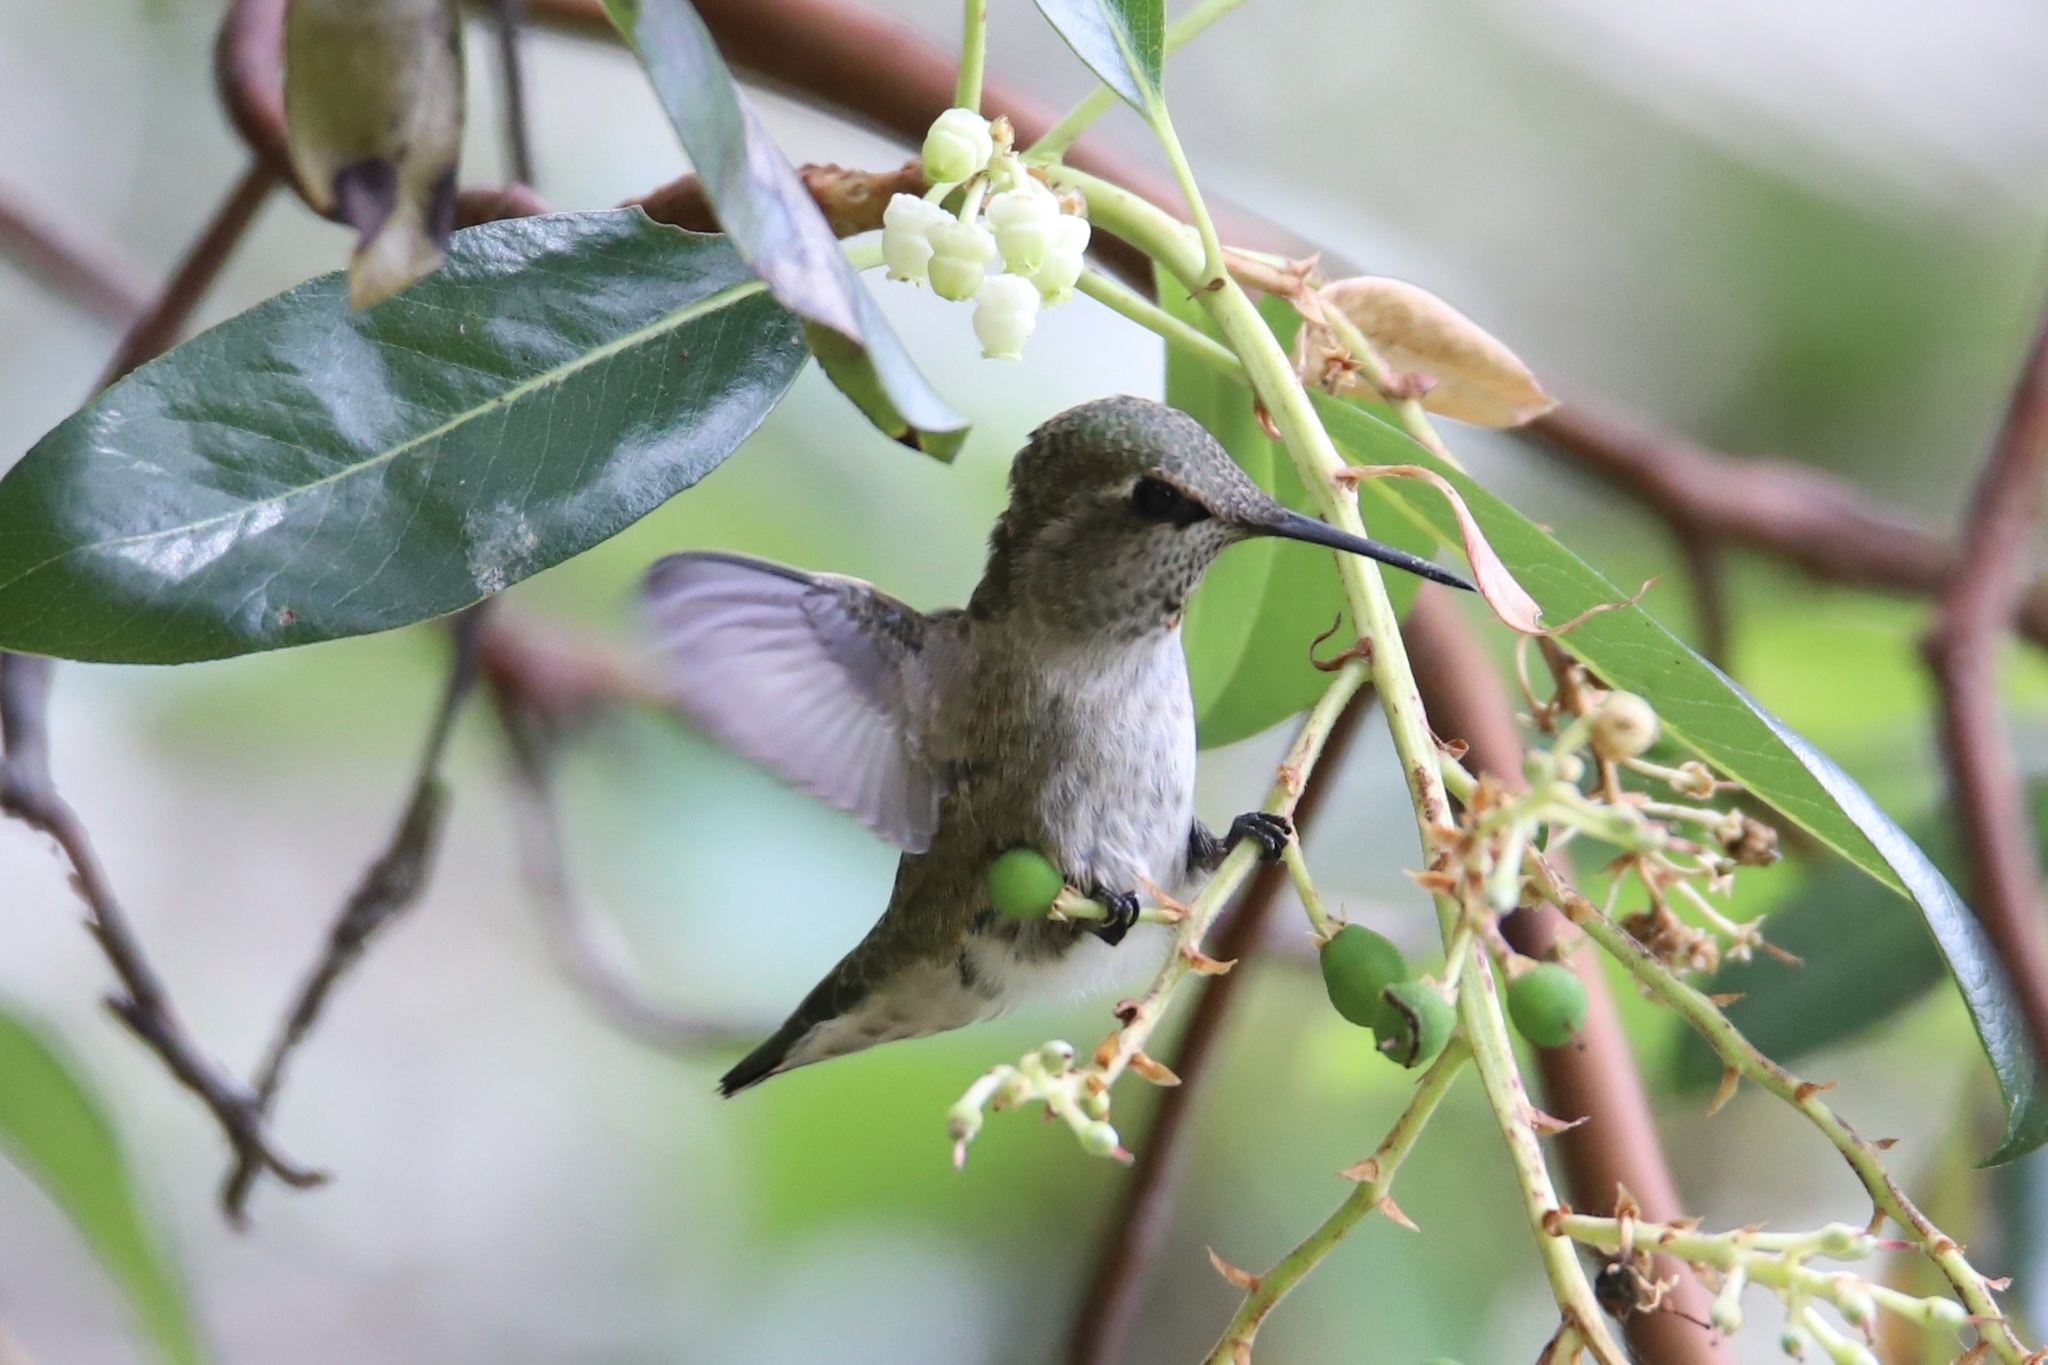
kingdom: Animalia
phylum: Chordata
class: Aves
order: Apodiformes
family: Trochilidae
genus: Calypte
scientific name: Calypte anna
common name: Anna's hummingbird
